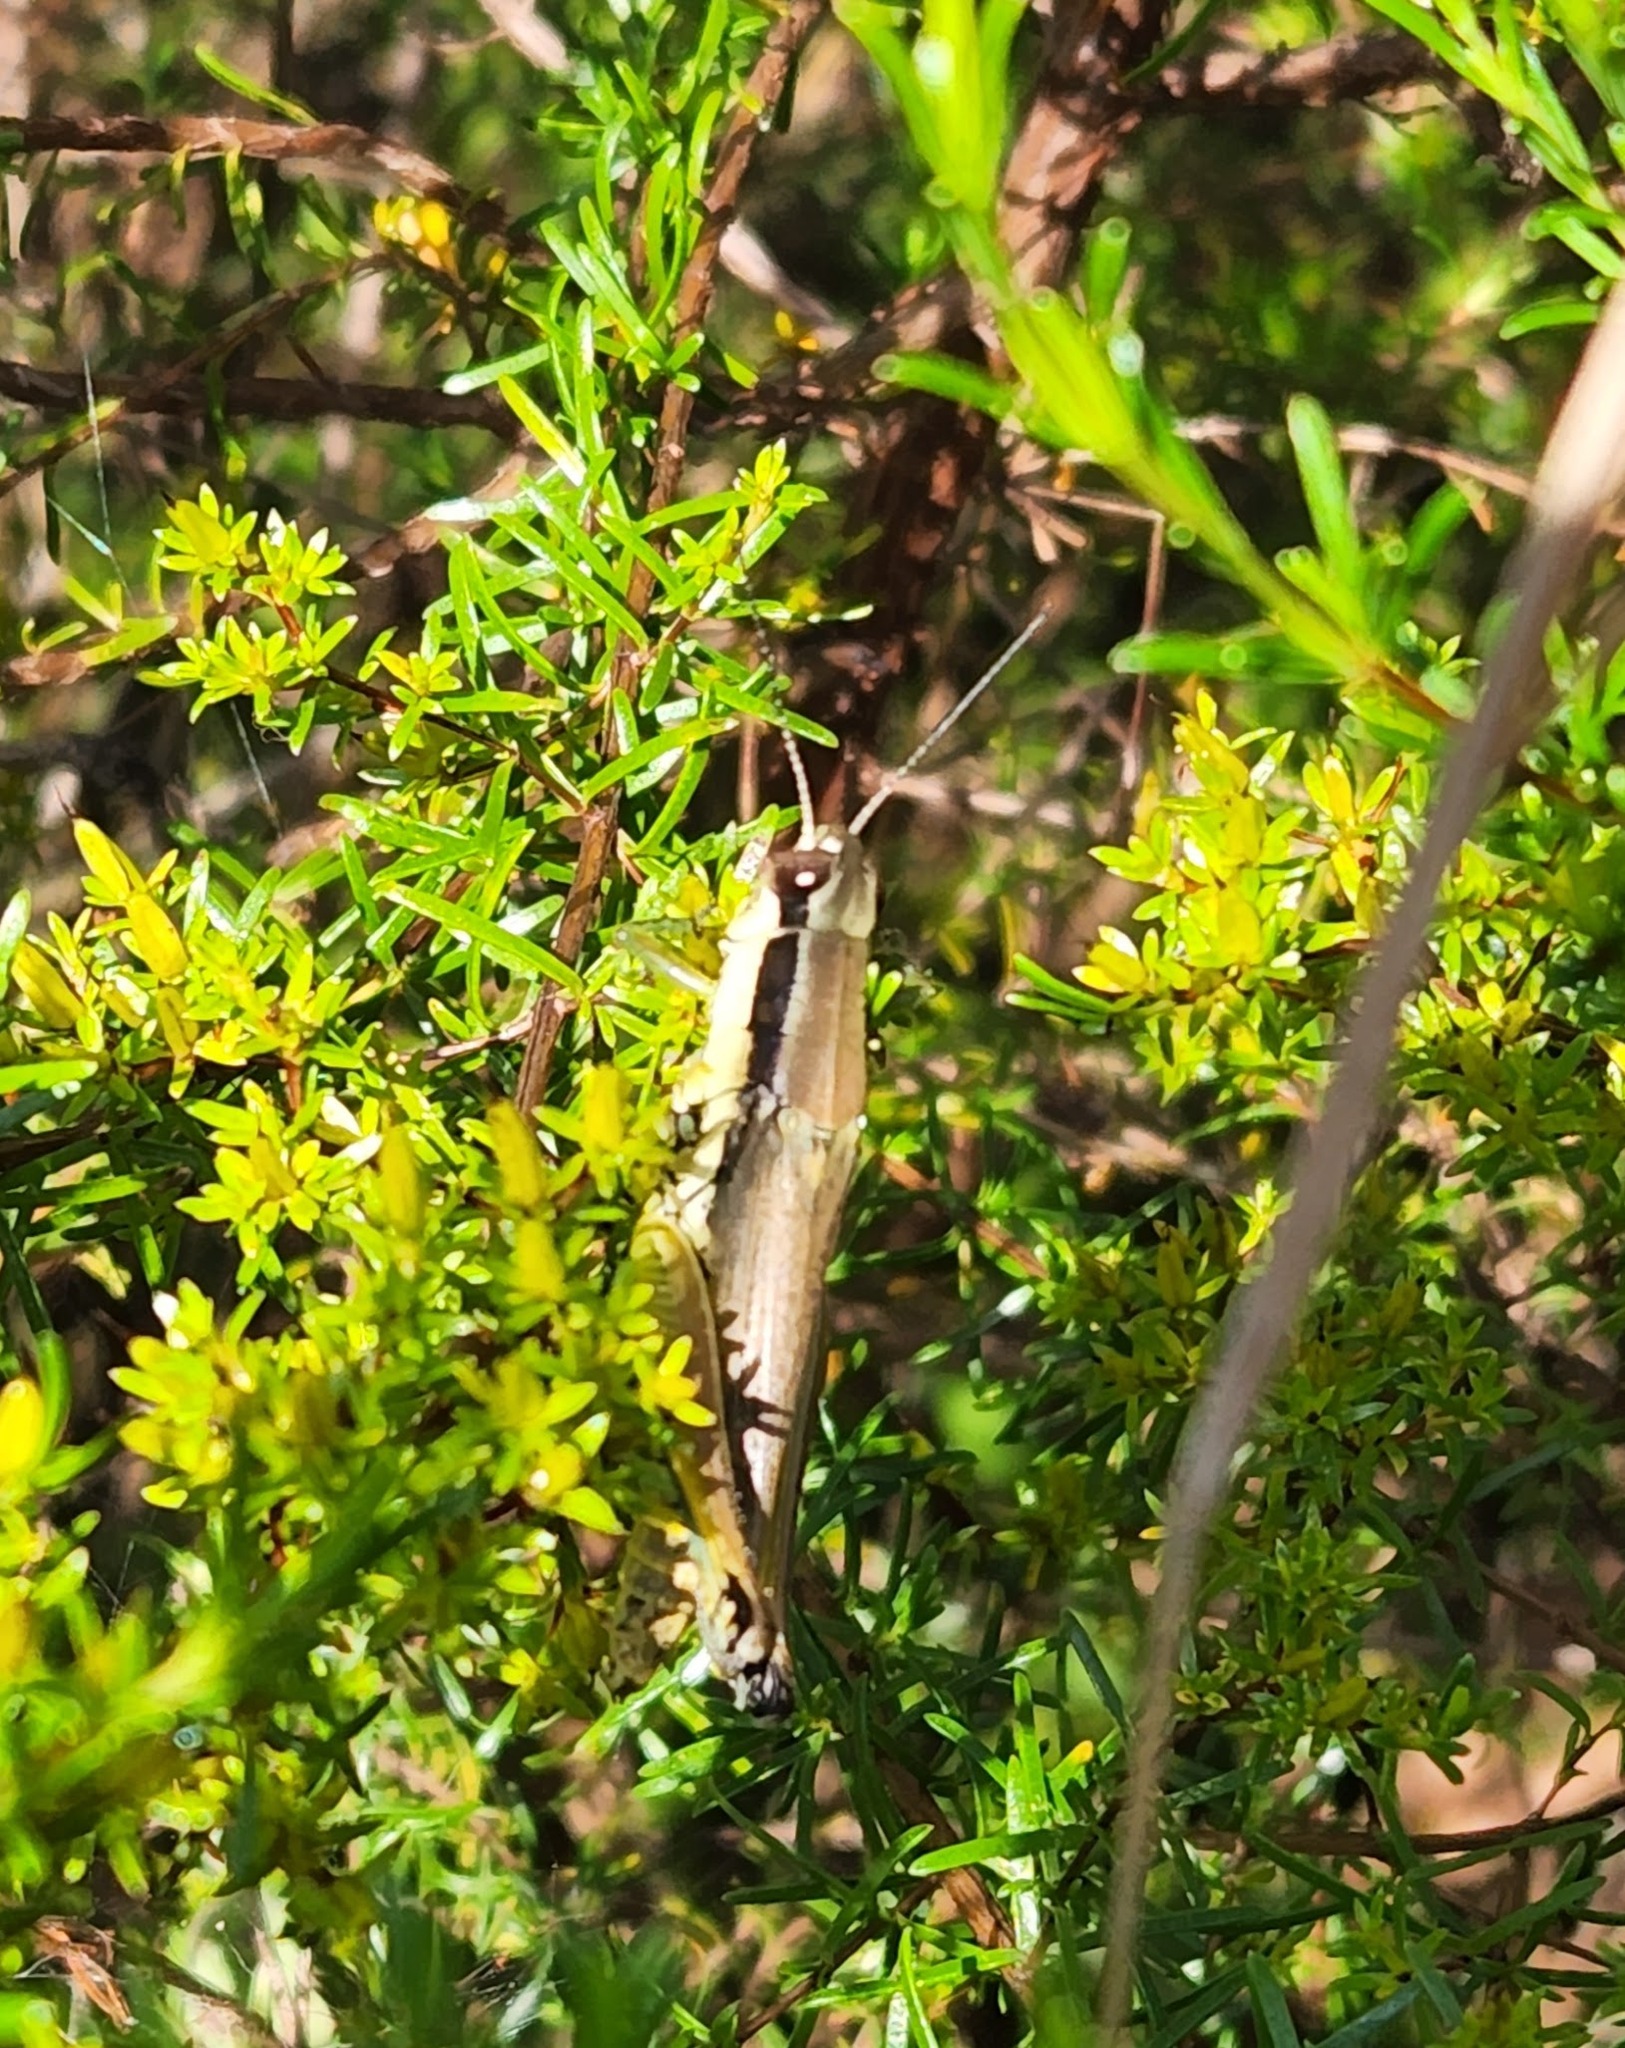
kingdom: Animalia
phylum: Arthropoda
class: Insecta
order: Orthoptera
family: Acrididae
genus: Paroxya
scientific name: Paroxya clavuligera
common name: Olive-green swamp grasshopper
